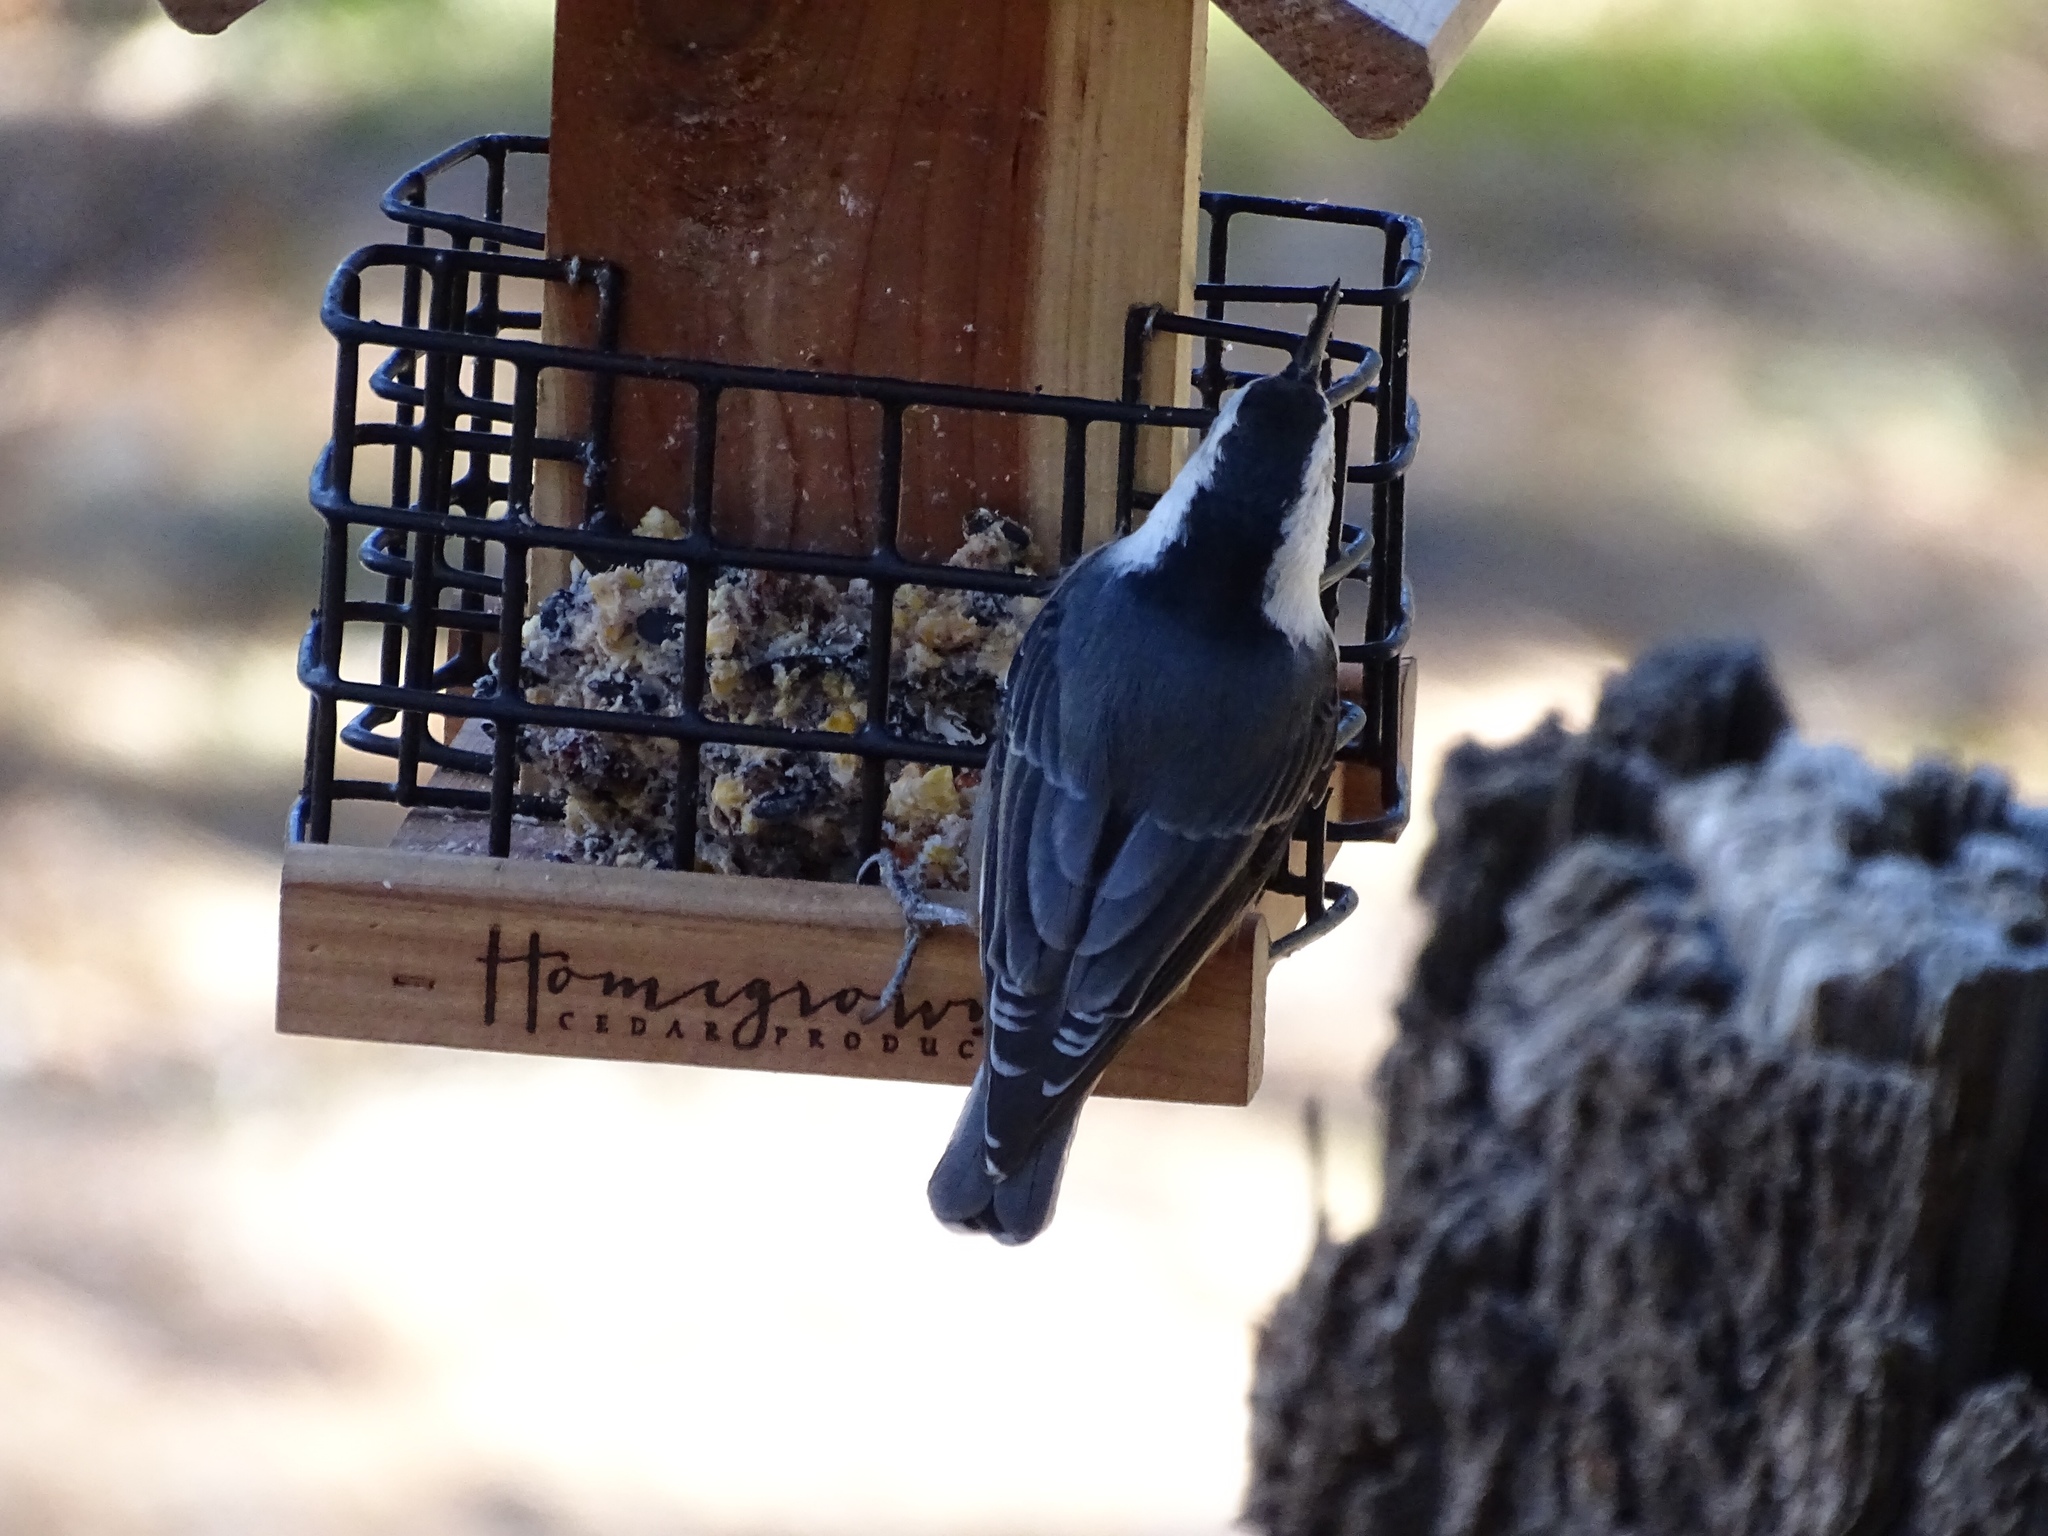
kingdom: Animalia
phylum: Chordata
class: Aves
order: Passeriformes
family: Sittidae
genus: Sitta
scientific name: Sitta carolinensis
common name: White-breasted nuthatch
